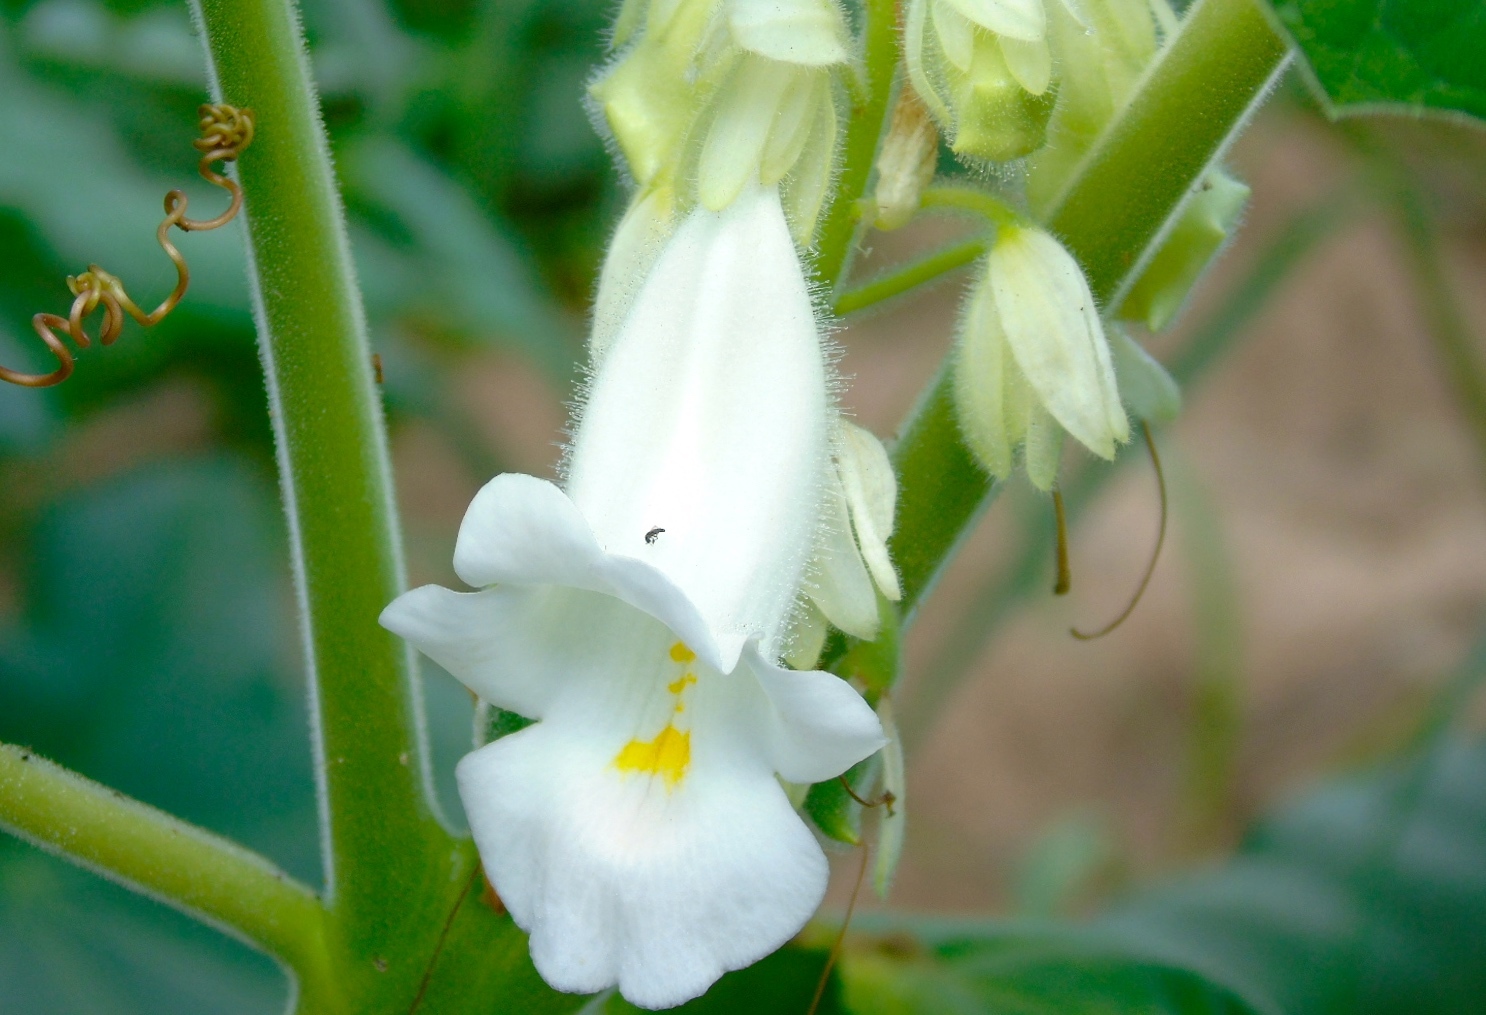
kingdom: Plantae
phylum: Tracheophyta
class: Magnoliopsida
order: Lamiales
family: Martyniaceae
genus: Martynia
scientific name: Martynia annua
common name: Tiger's-claw
